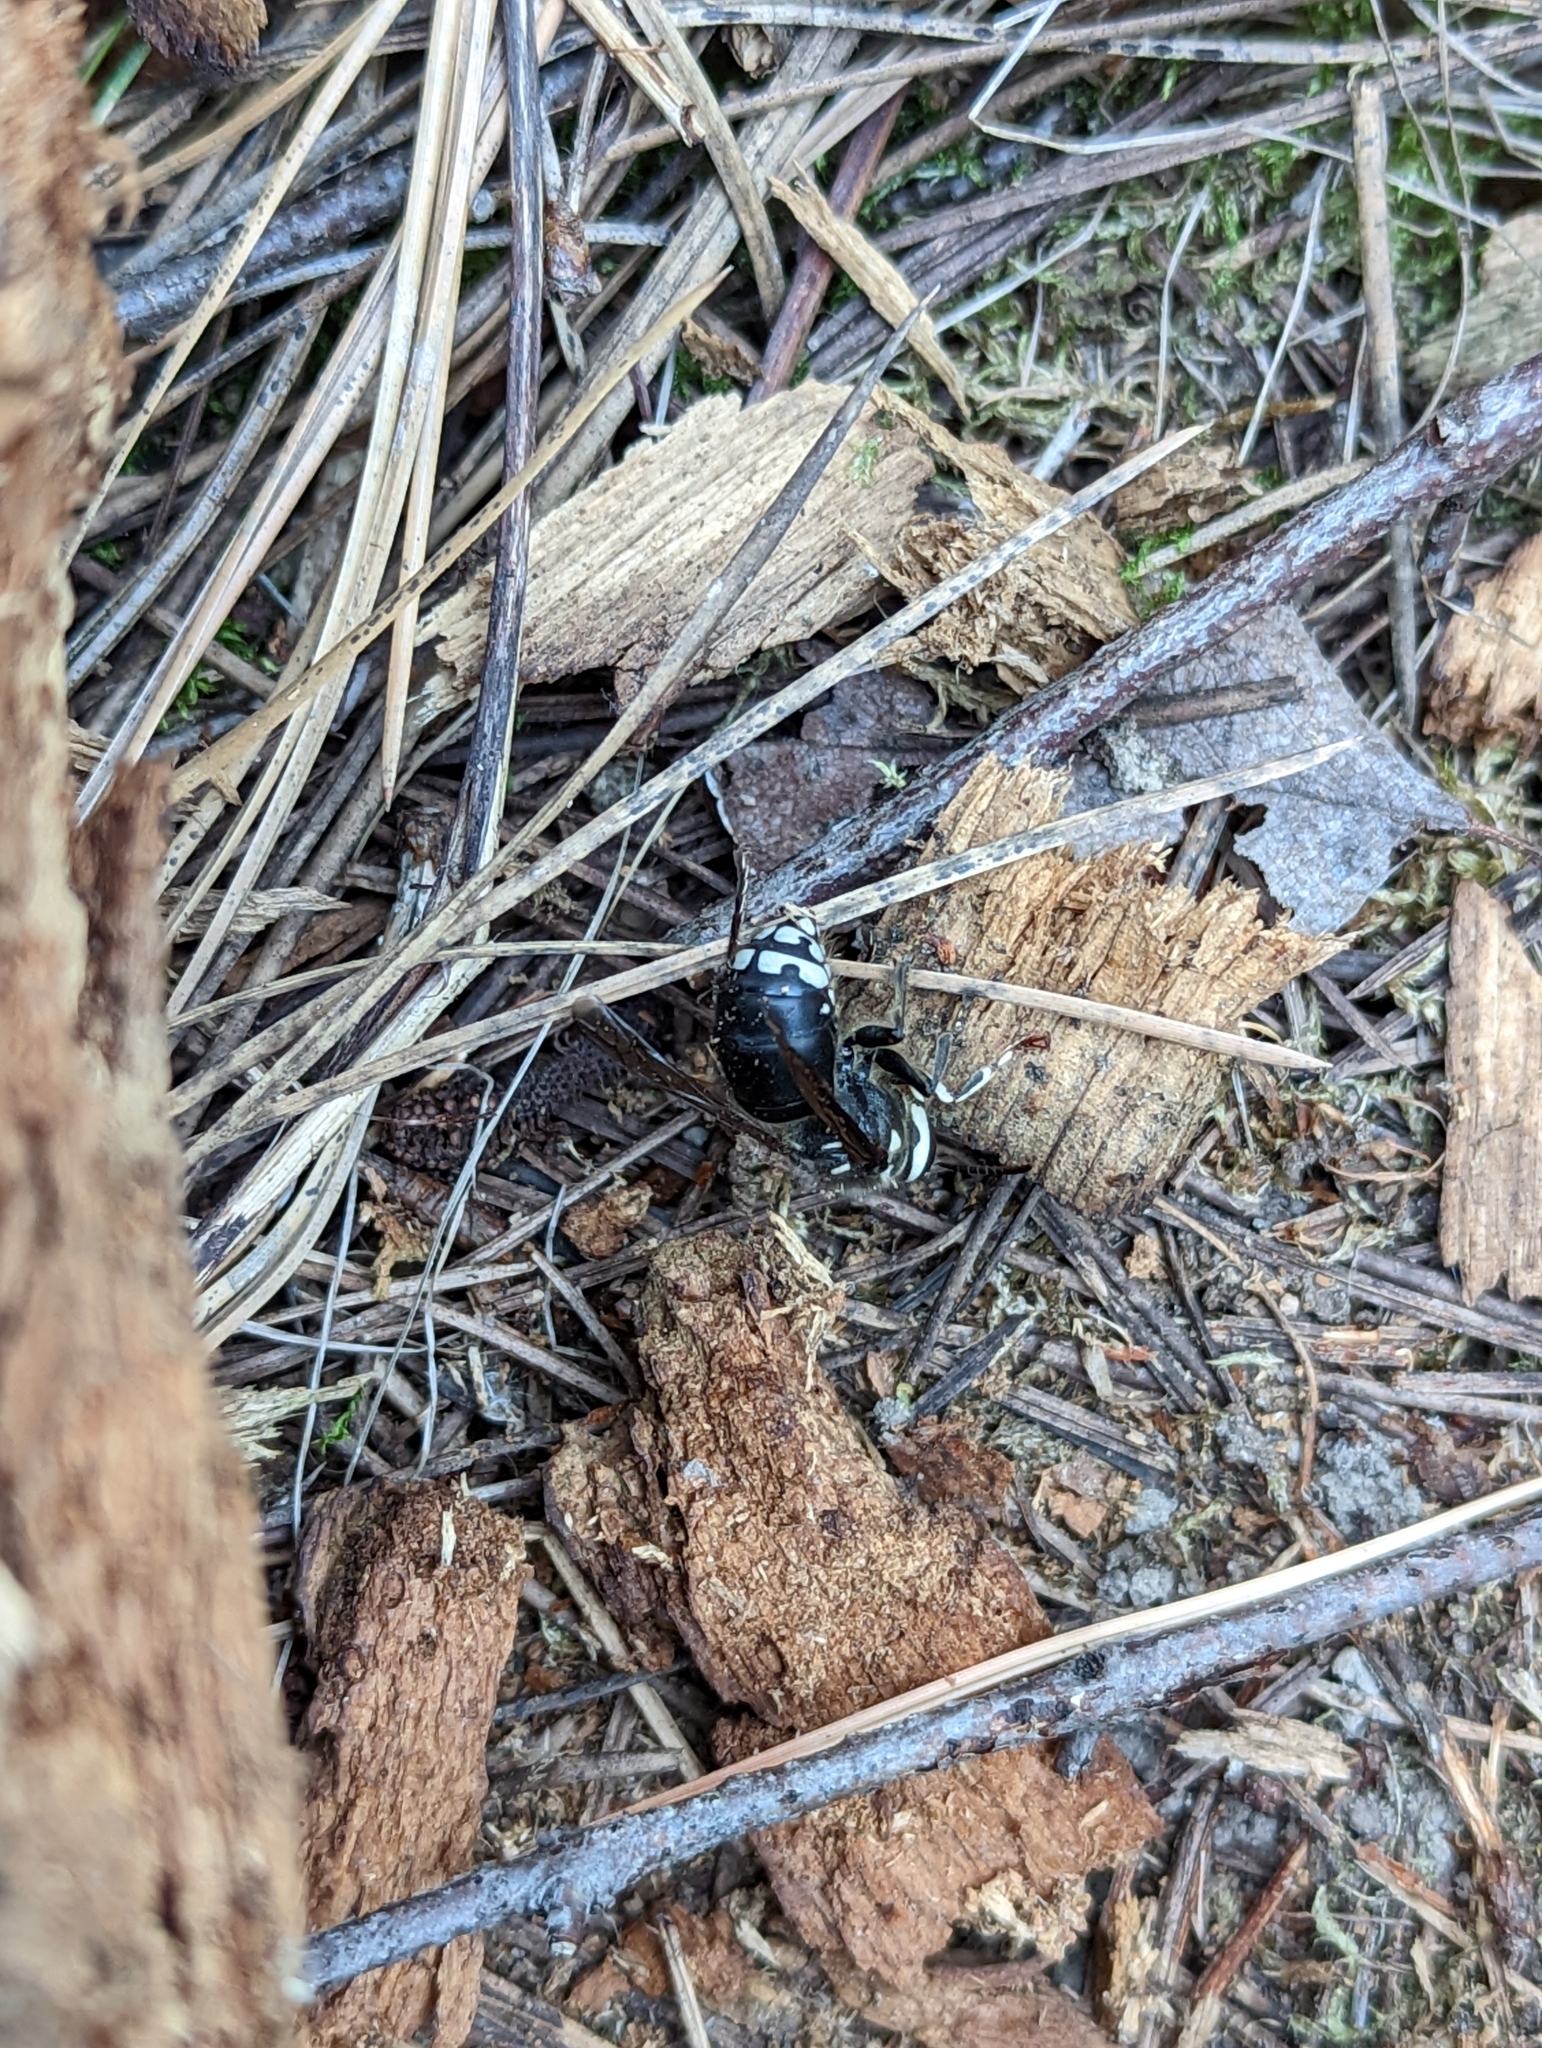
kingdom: Animalia
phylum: Arthropoda
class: Insecta
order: Hymenoptera
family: Vespidae
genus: Dolichovespula
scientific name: Dolichovespula maculata
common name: Bald-faced hornet
